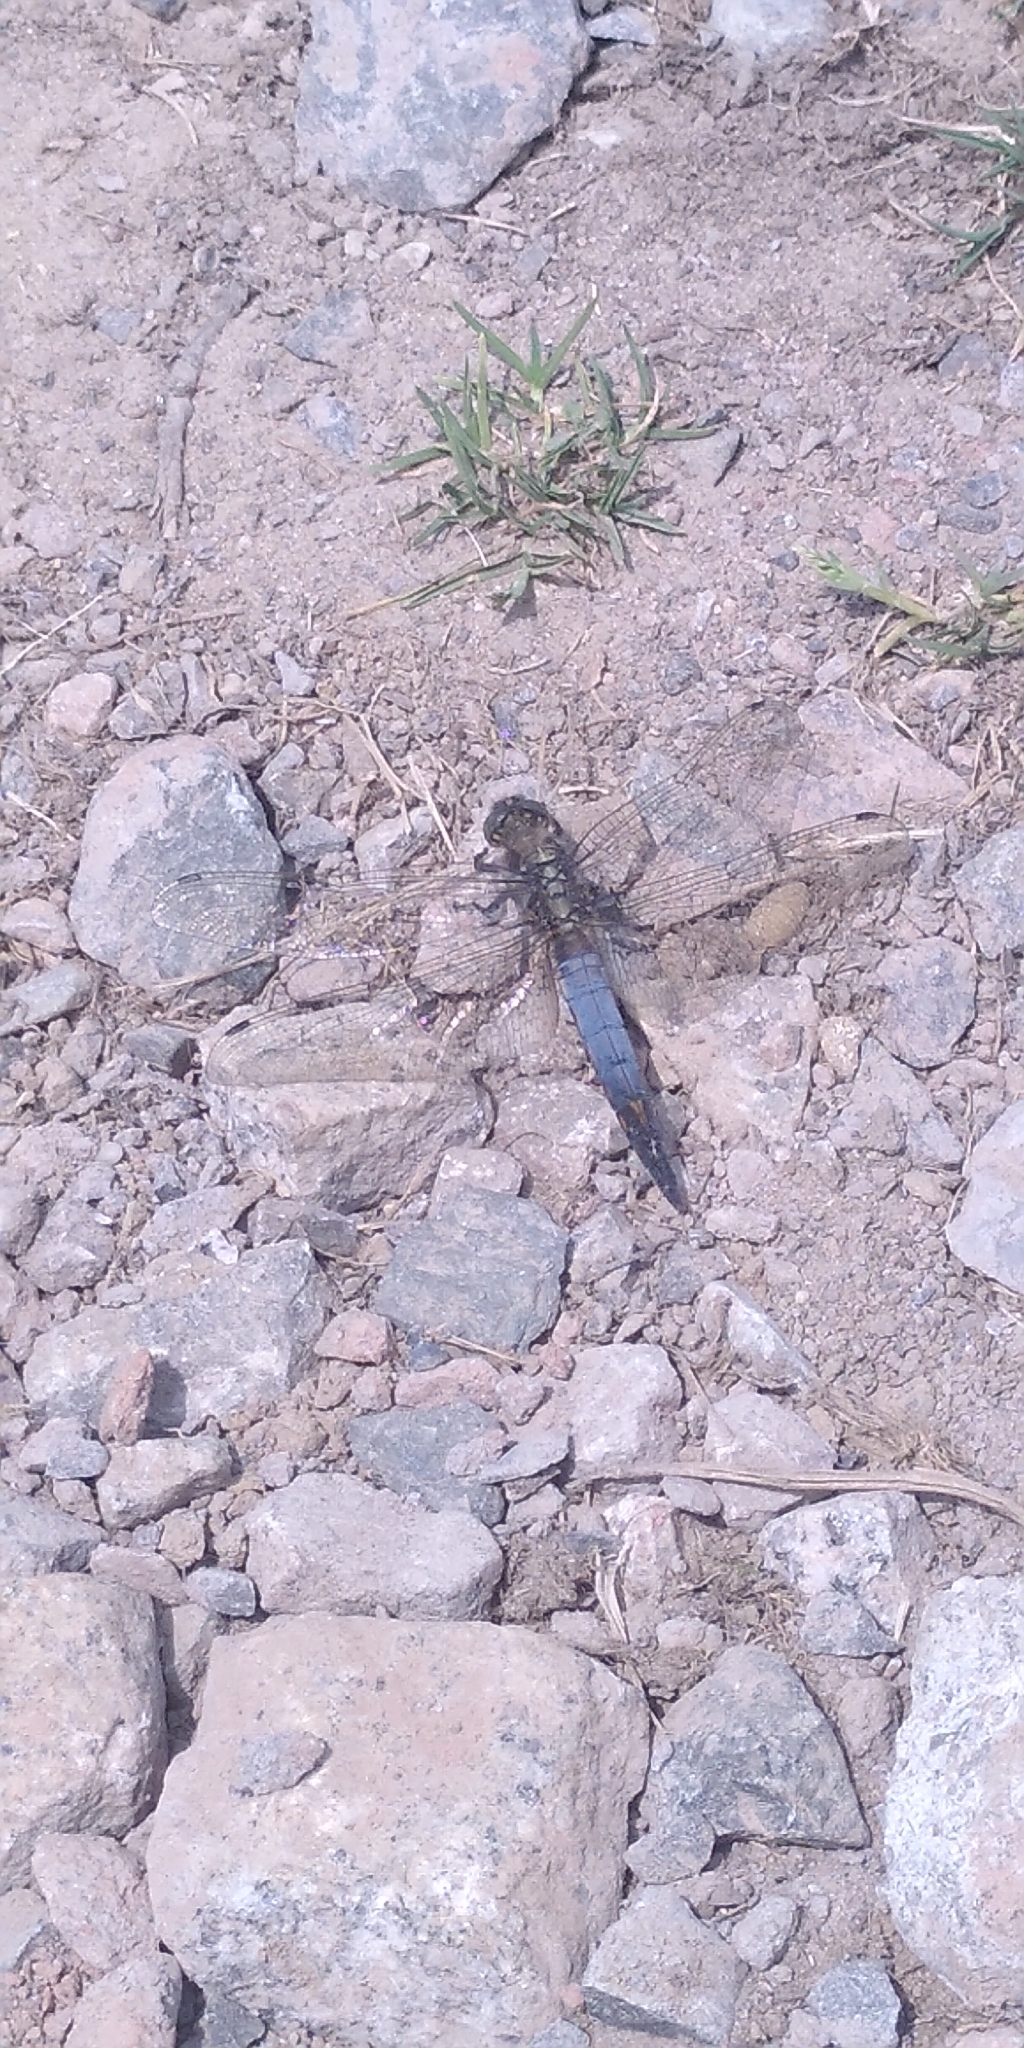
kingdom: Animalia
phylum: Arthropoda
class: Insecta
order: Odonata
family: Libellulidae
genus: Orthetrum
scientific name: Orthetrum cancellatum
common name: Black-tailed skimmer
